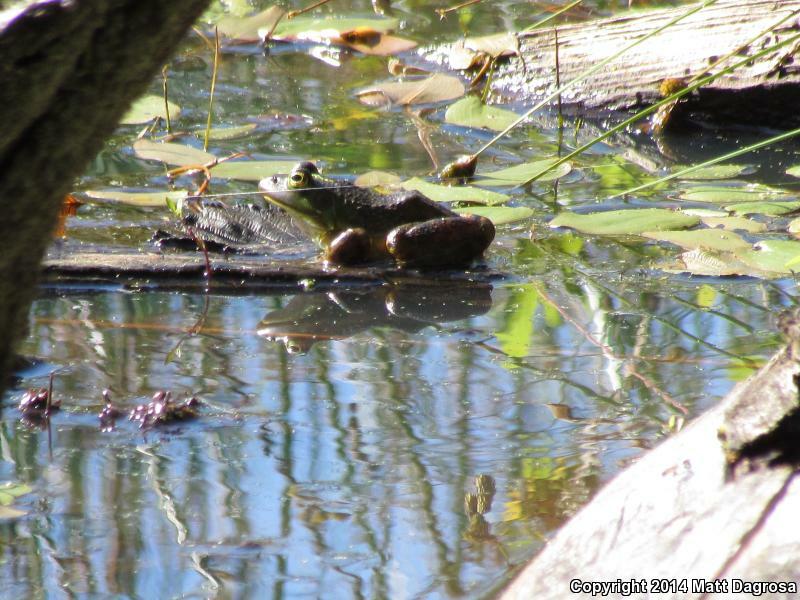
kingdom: Animalia
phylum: Chordata
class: Amphibia
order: Anura
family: Ranidae
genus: Lithobates
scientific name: Lithobates catesbeianus
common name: American bullfrog
